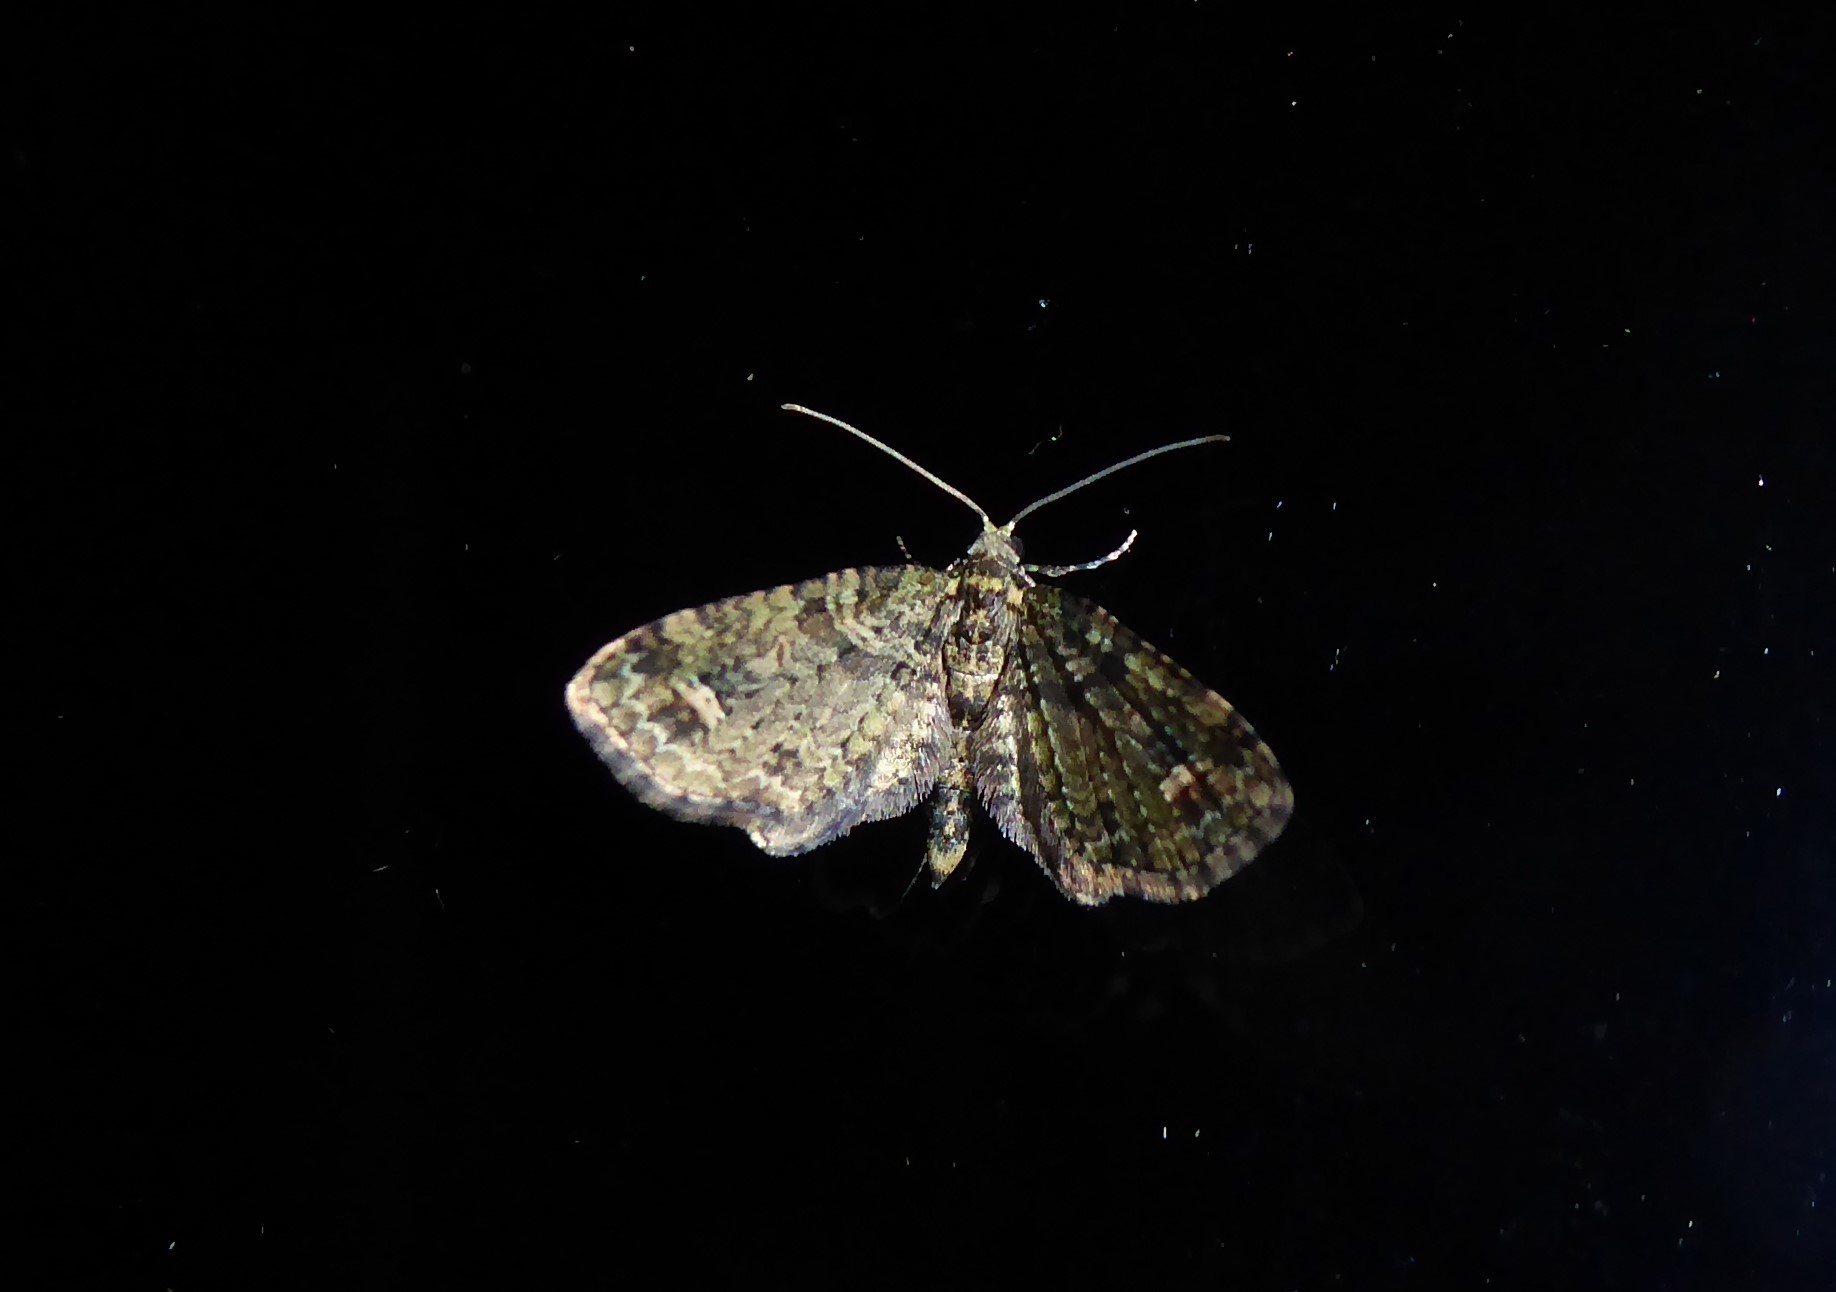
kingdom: Animalia
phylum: Arthropoda
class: Insecta
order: Lepidoptera
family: Geometridae
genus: Idaea
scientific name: Idaea mutanda
